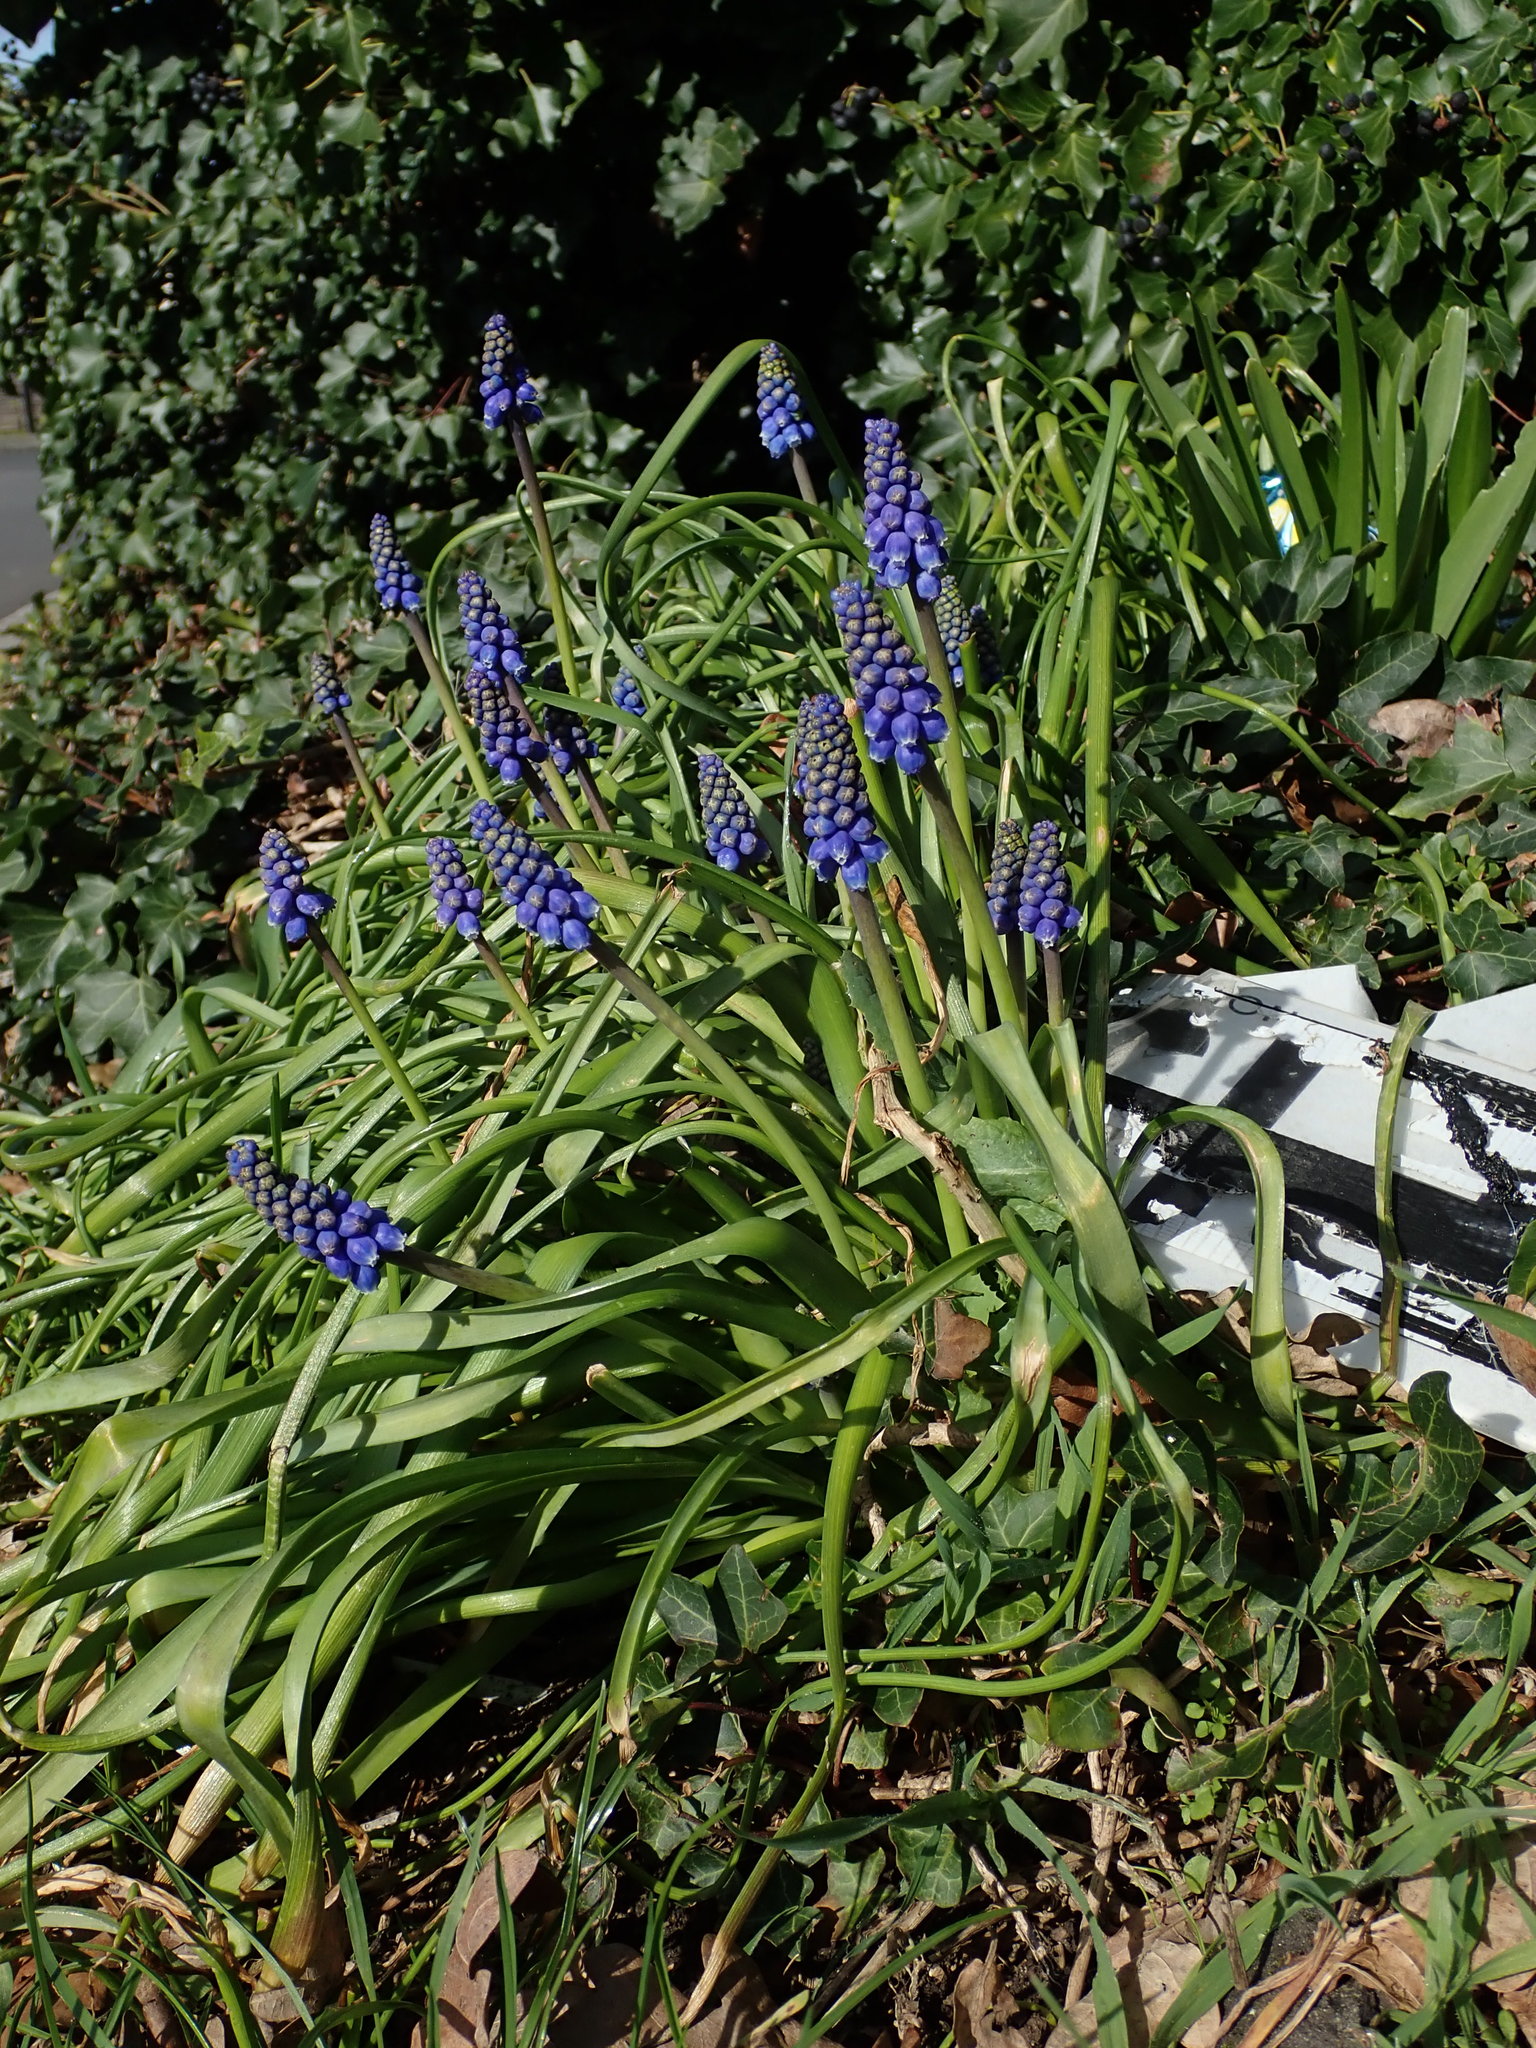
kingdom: Plantae
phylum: Tracheophyta
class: Liliopsida
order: Asparagales
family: Asparagaceae
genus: Muscari
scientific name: Muscari armeniacum
